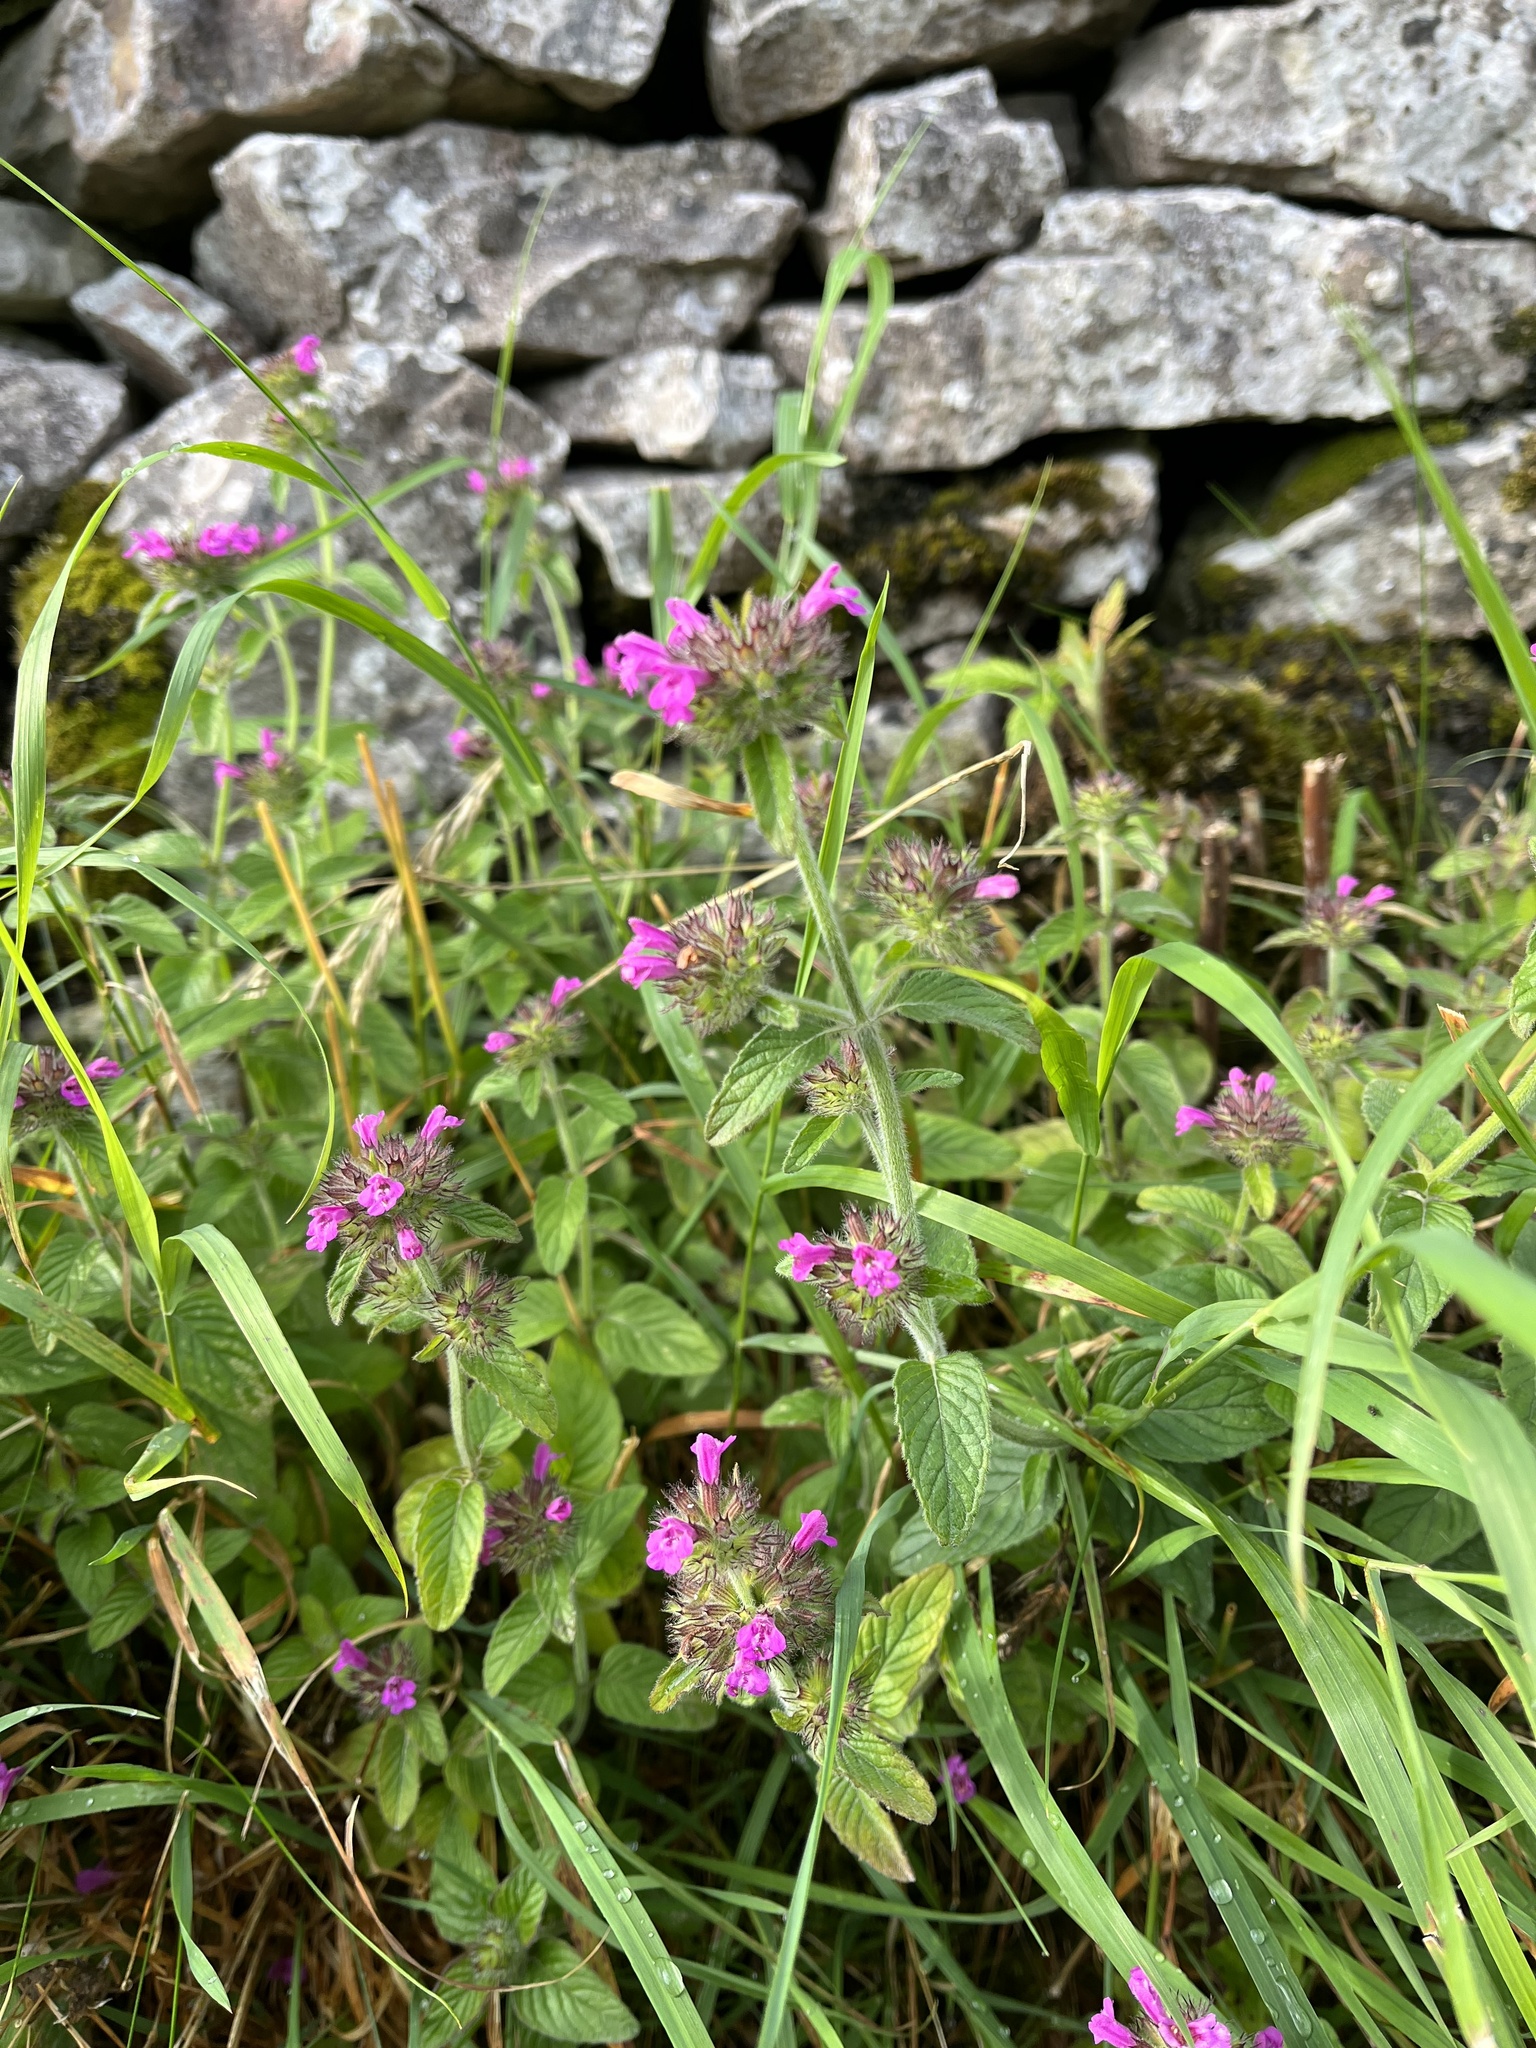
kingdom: Plantae
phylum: Tracheophyta
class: Magnoliopsida
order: Lamiales
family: Lamiaceae
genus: Clinopodium
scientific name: Clinopodium vulgare
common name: Wild basil
